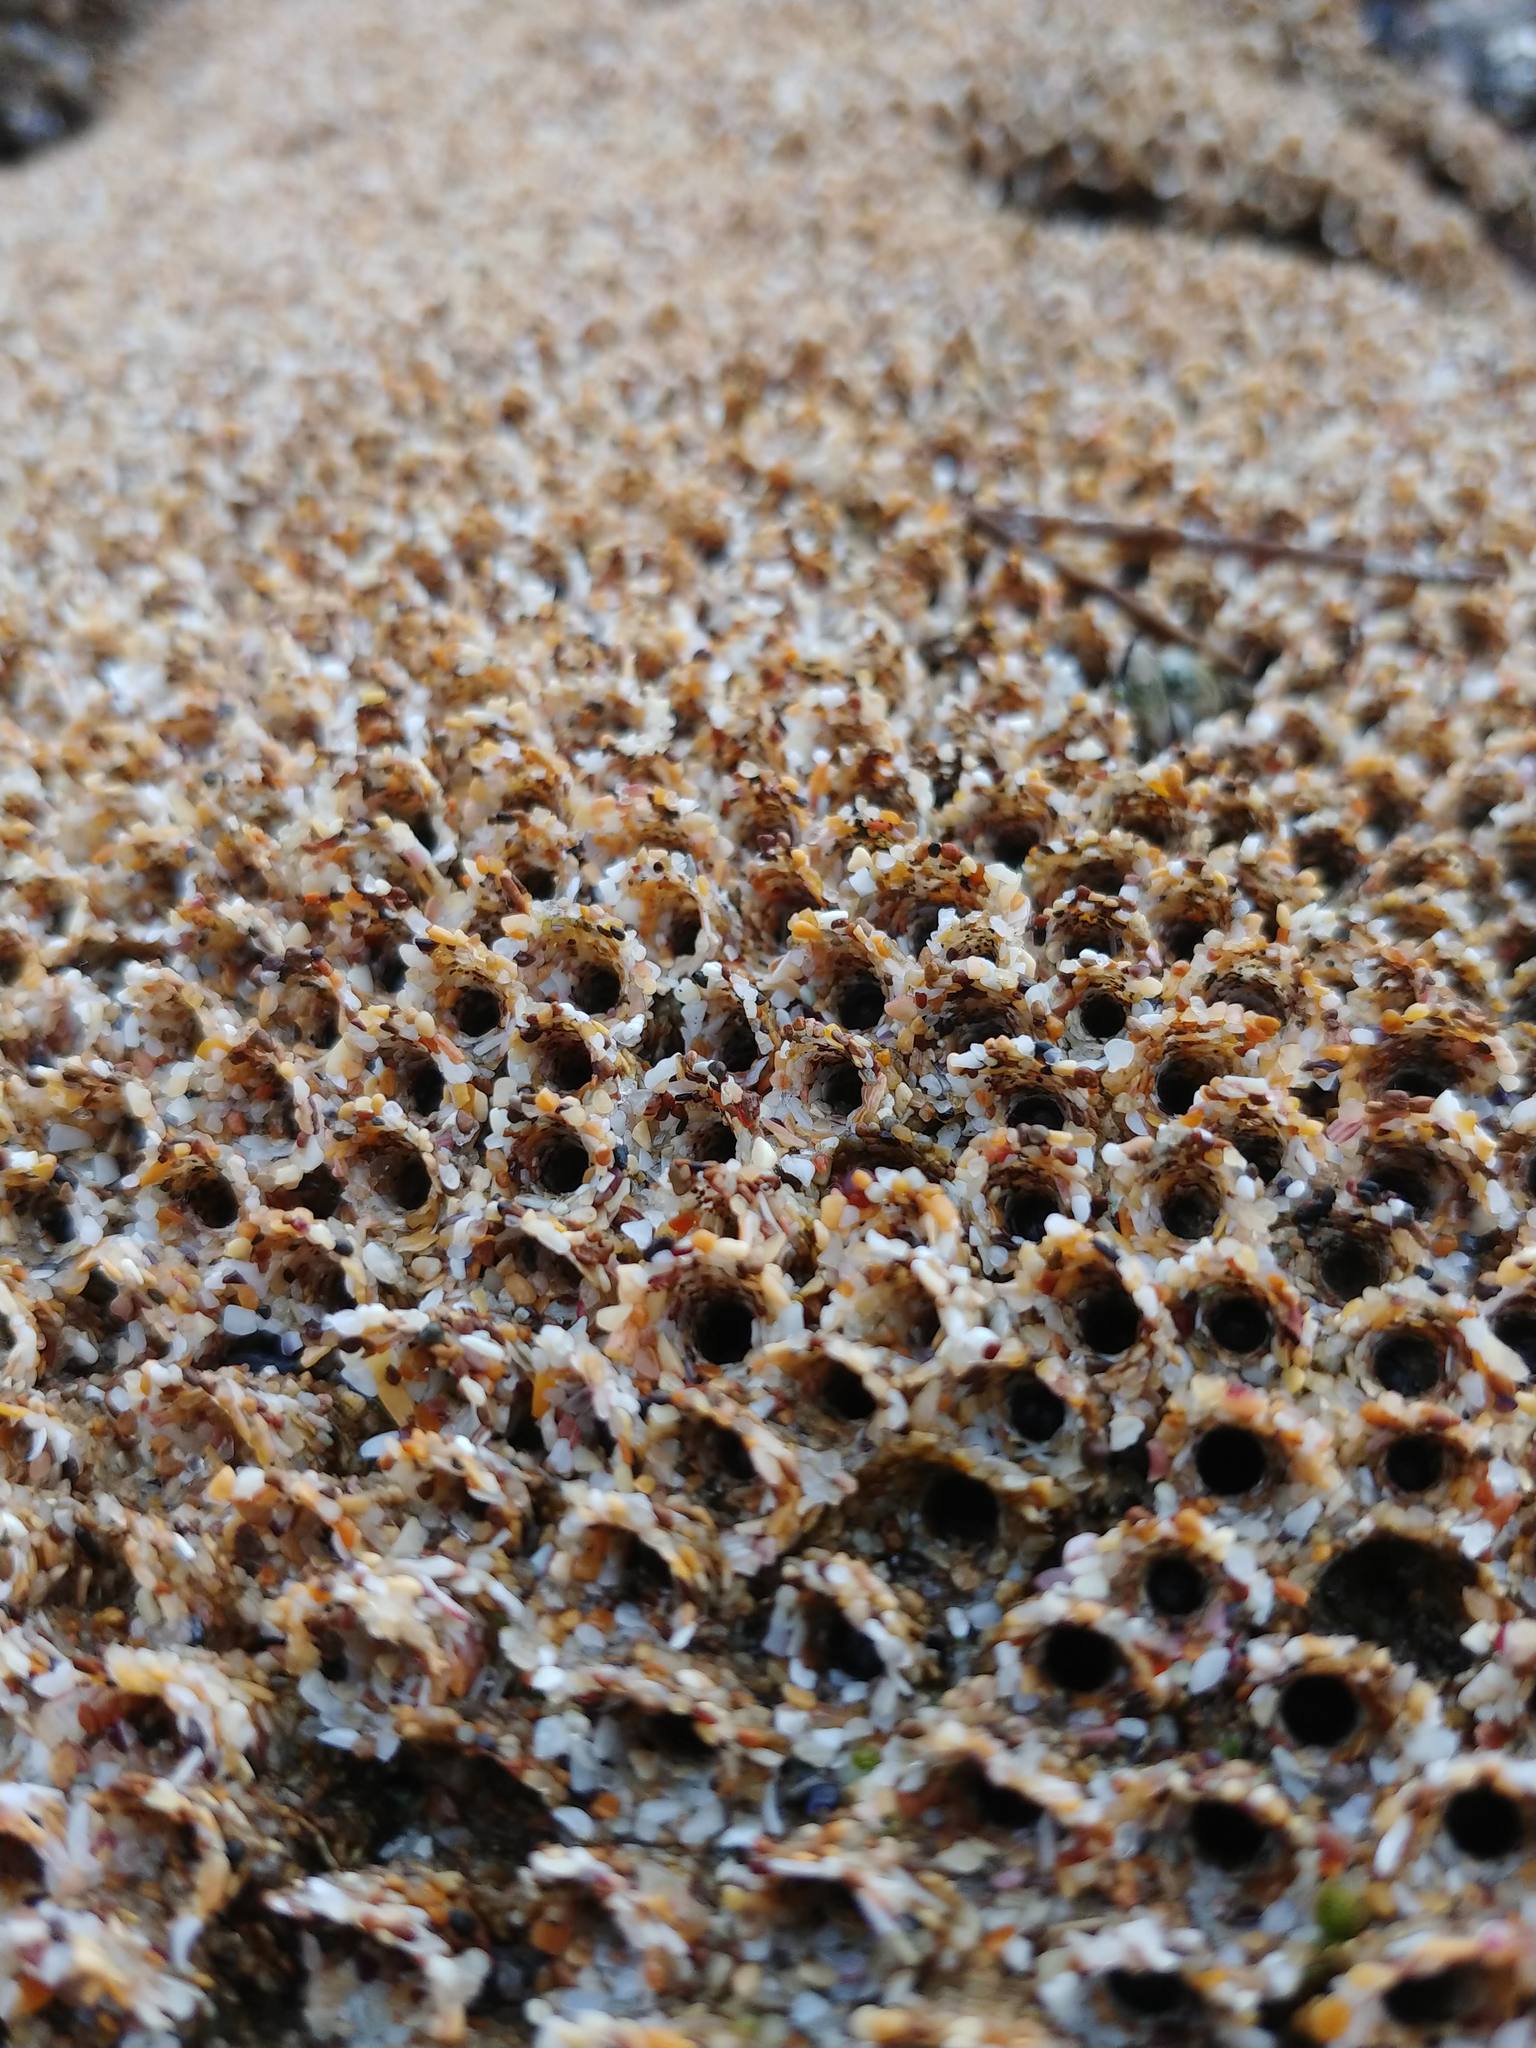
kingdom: Animalia
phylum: Annelida
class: Polychaeta
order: Sabellida
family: Sabellariidae
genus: Phragmatopoma
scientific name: Phragmatopoma californica
